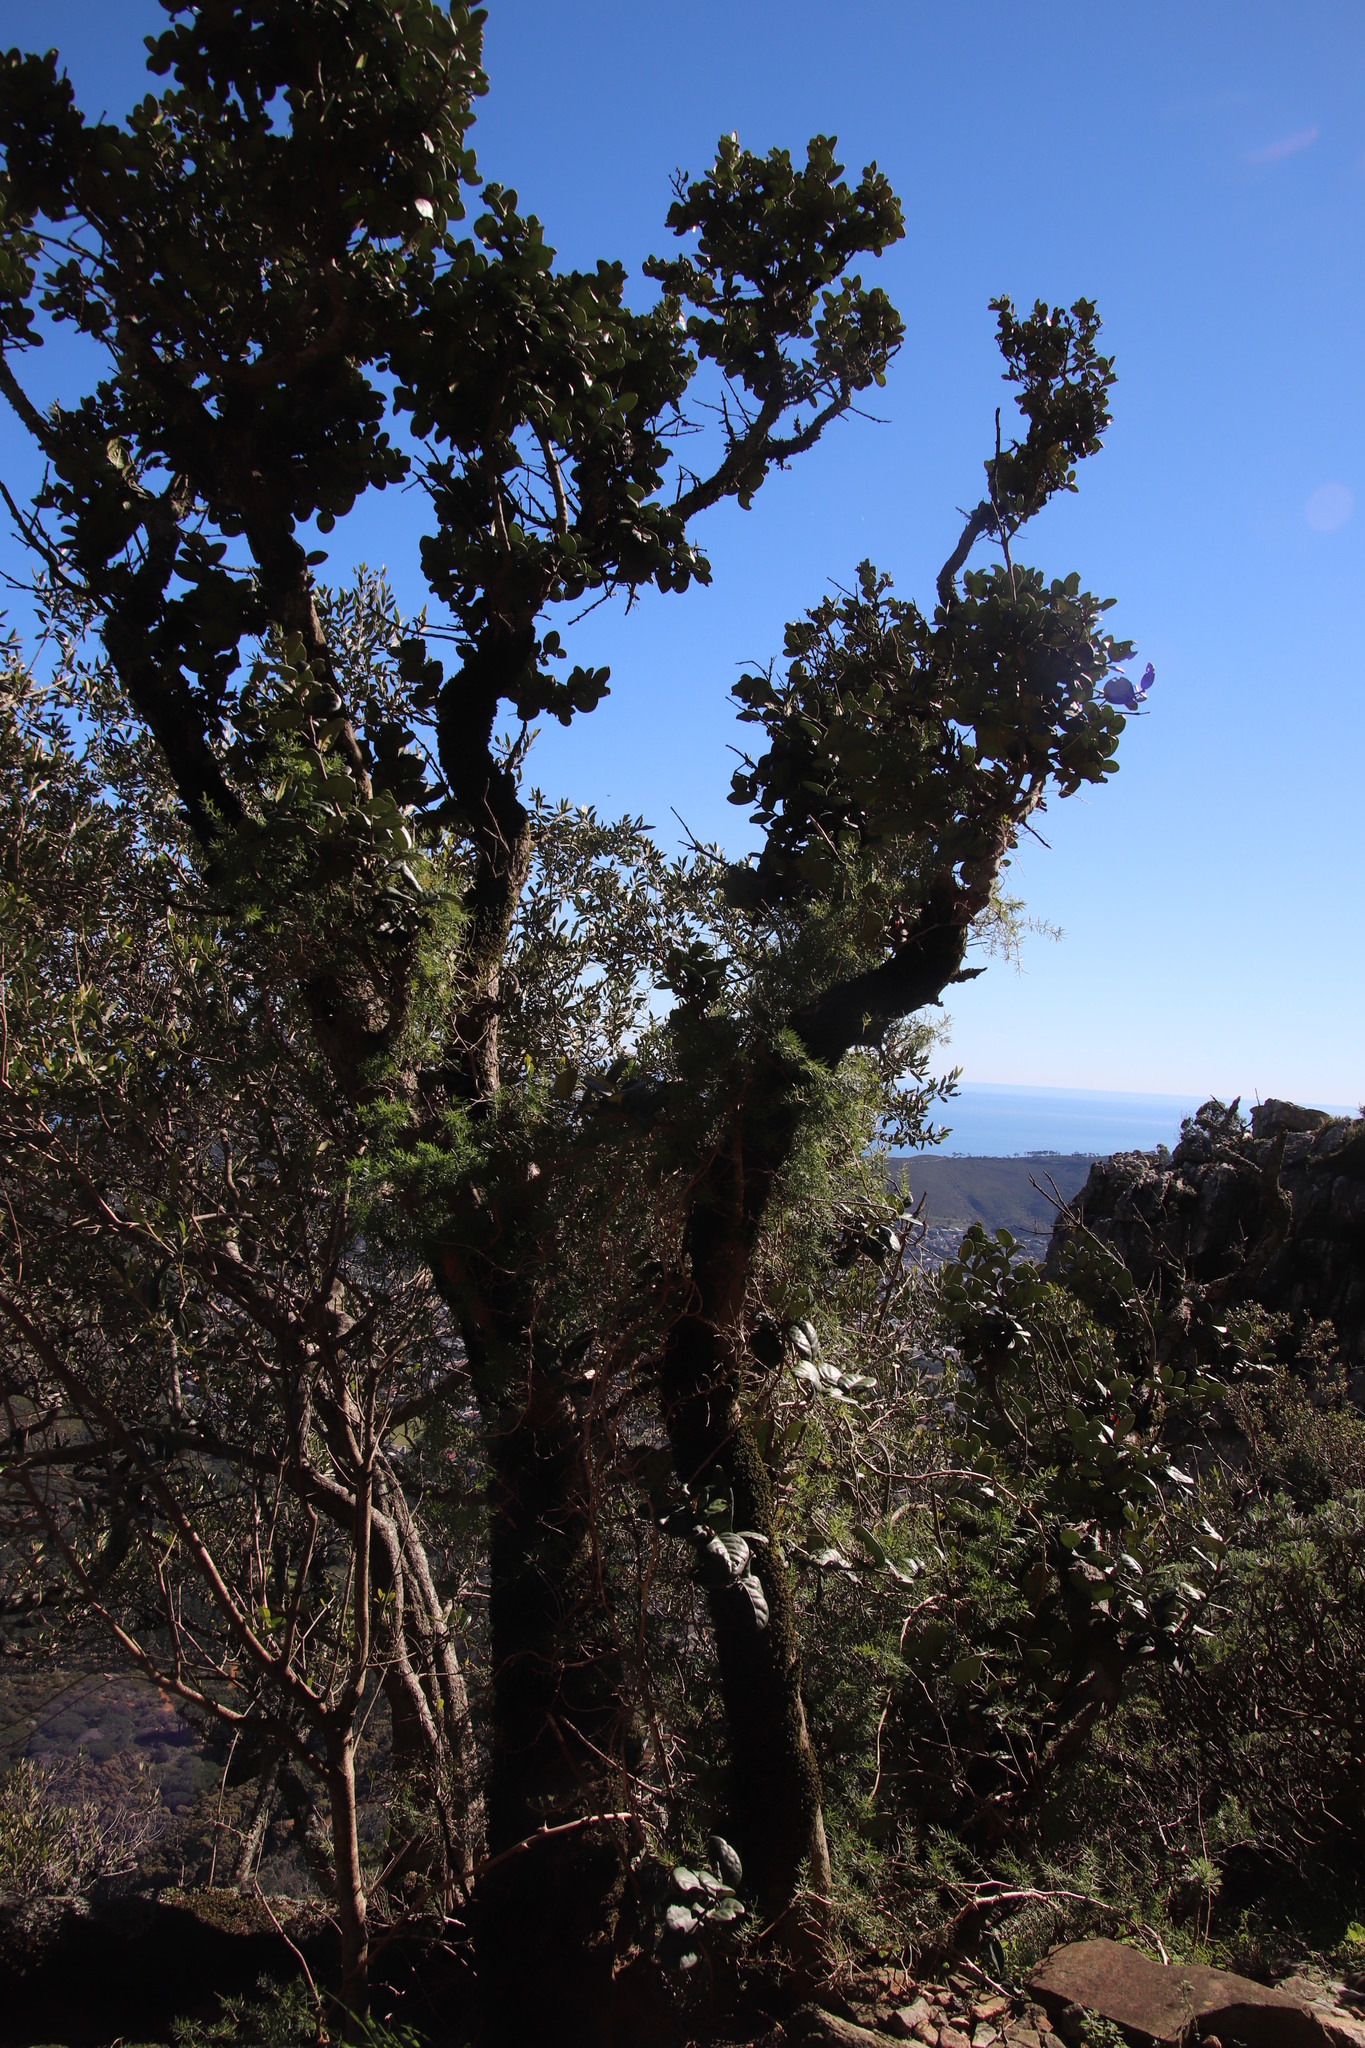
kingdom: Plantae
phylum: Tracheophyta
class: Magnoliopsida
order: Celastrales
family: Celastraceae
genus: Maurocenia
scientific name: Maurocenia frangula
